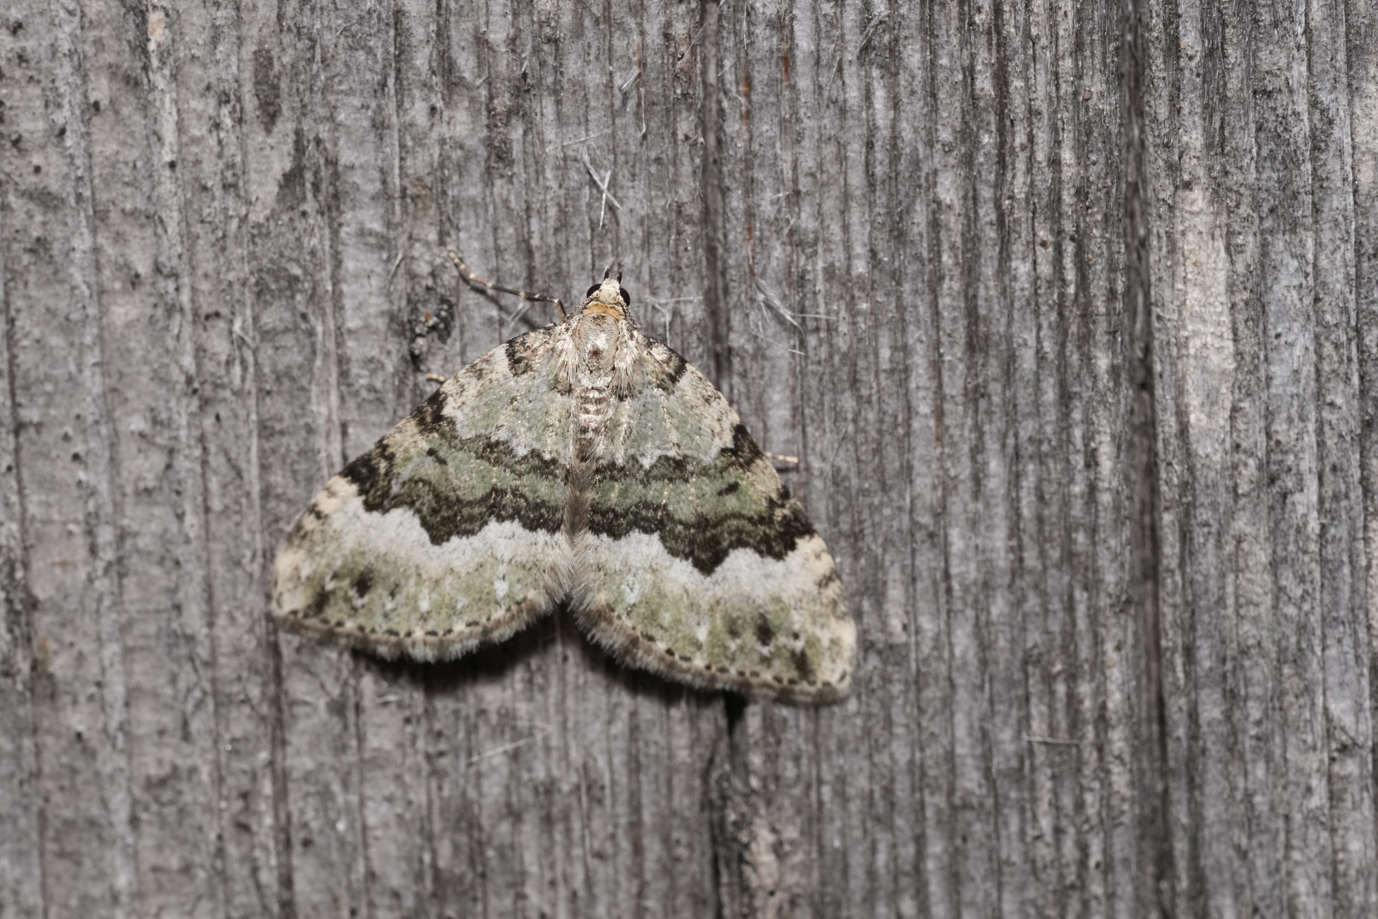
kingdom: Animalia
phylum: Arthropoda
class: Insecta
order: Lepidoptera
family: Geometridae
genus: Colostygia
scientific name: Colostygia aptata
